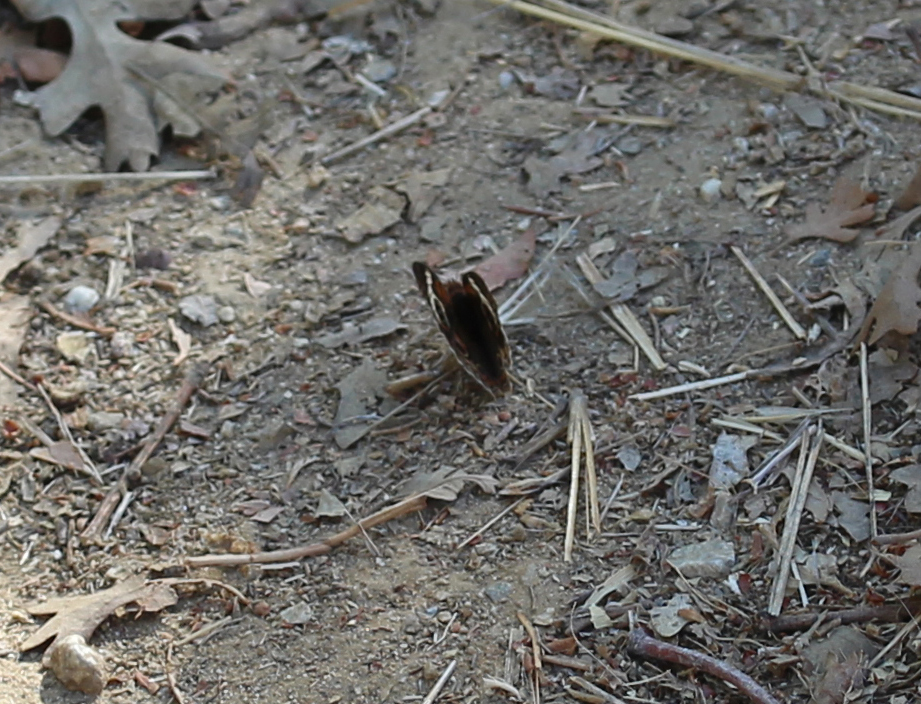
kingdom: Animalia
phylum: Arthropoda
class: Insecta
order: Lepidoptera
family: Nymphalidae
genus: Junonia
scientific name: Junonia grisea
